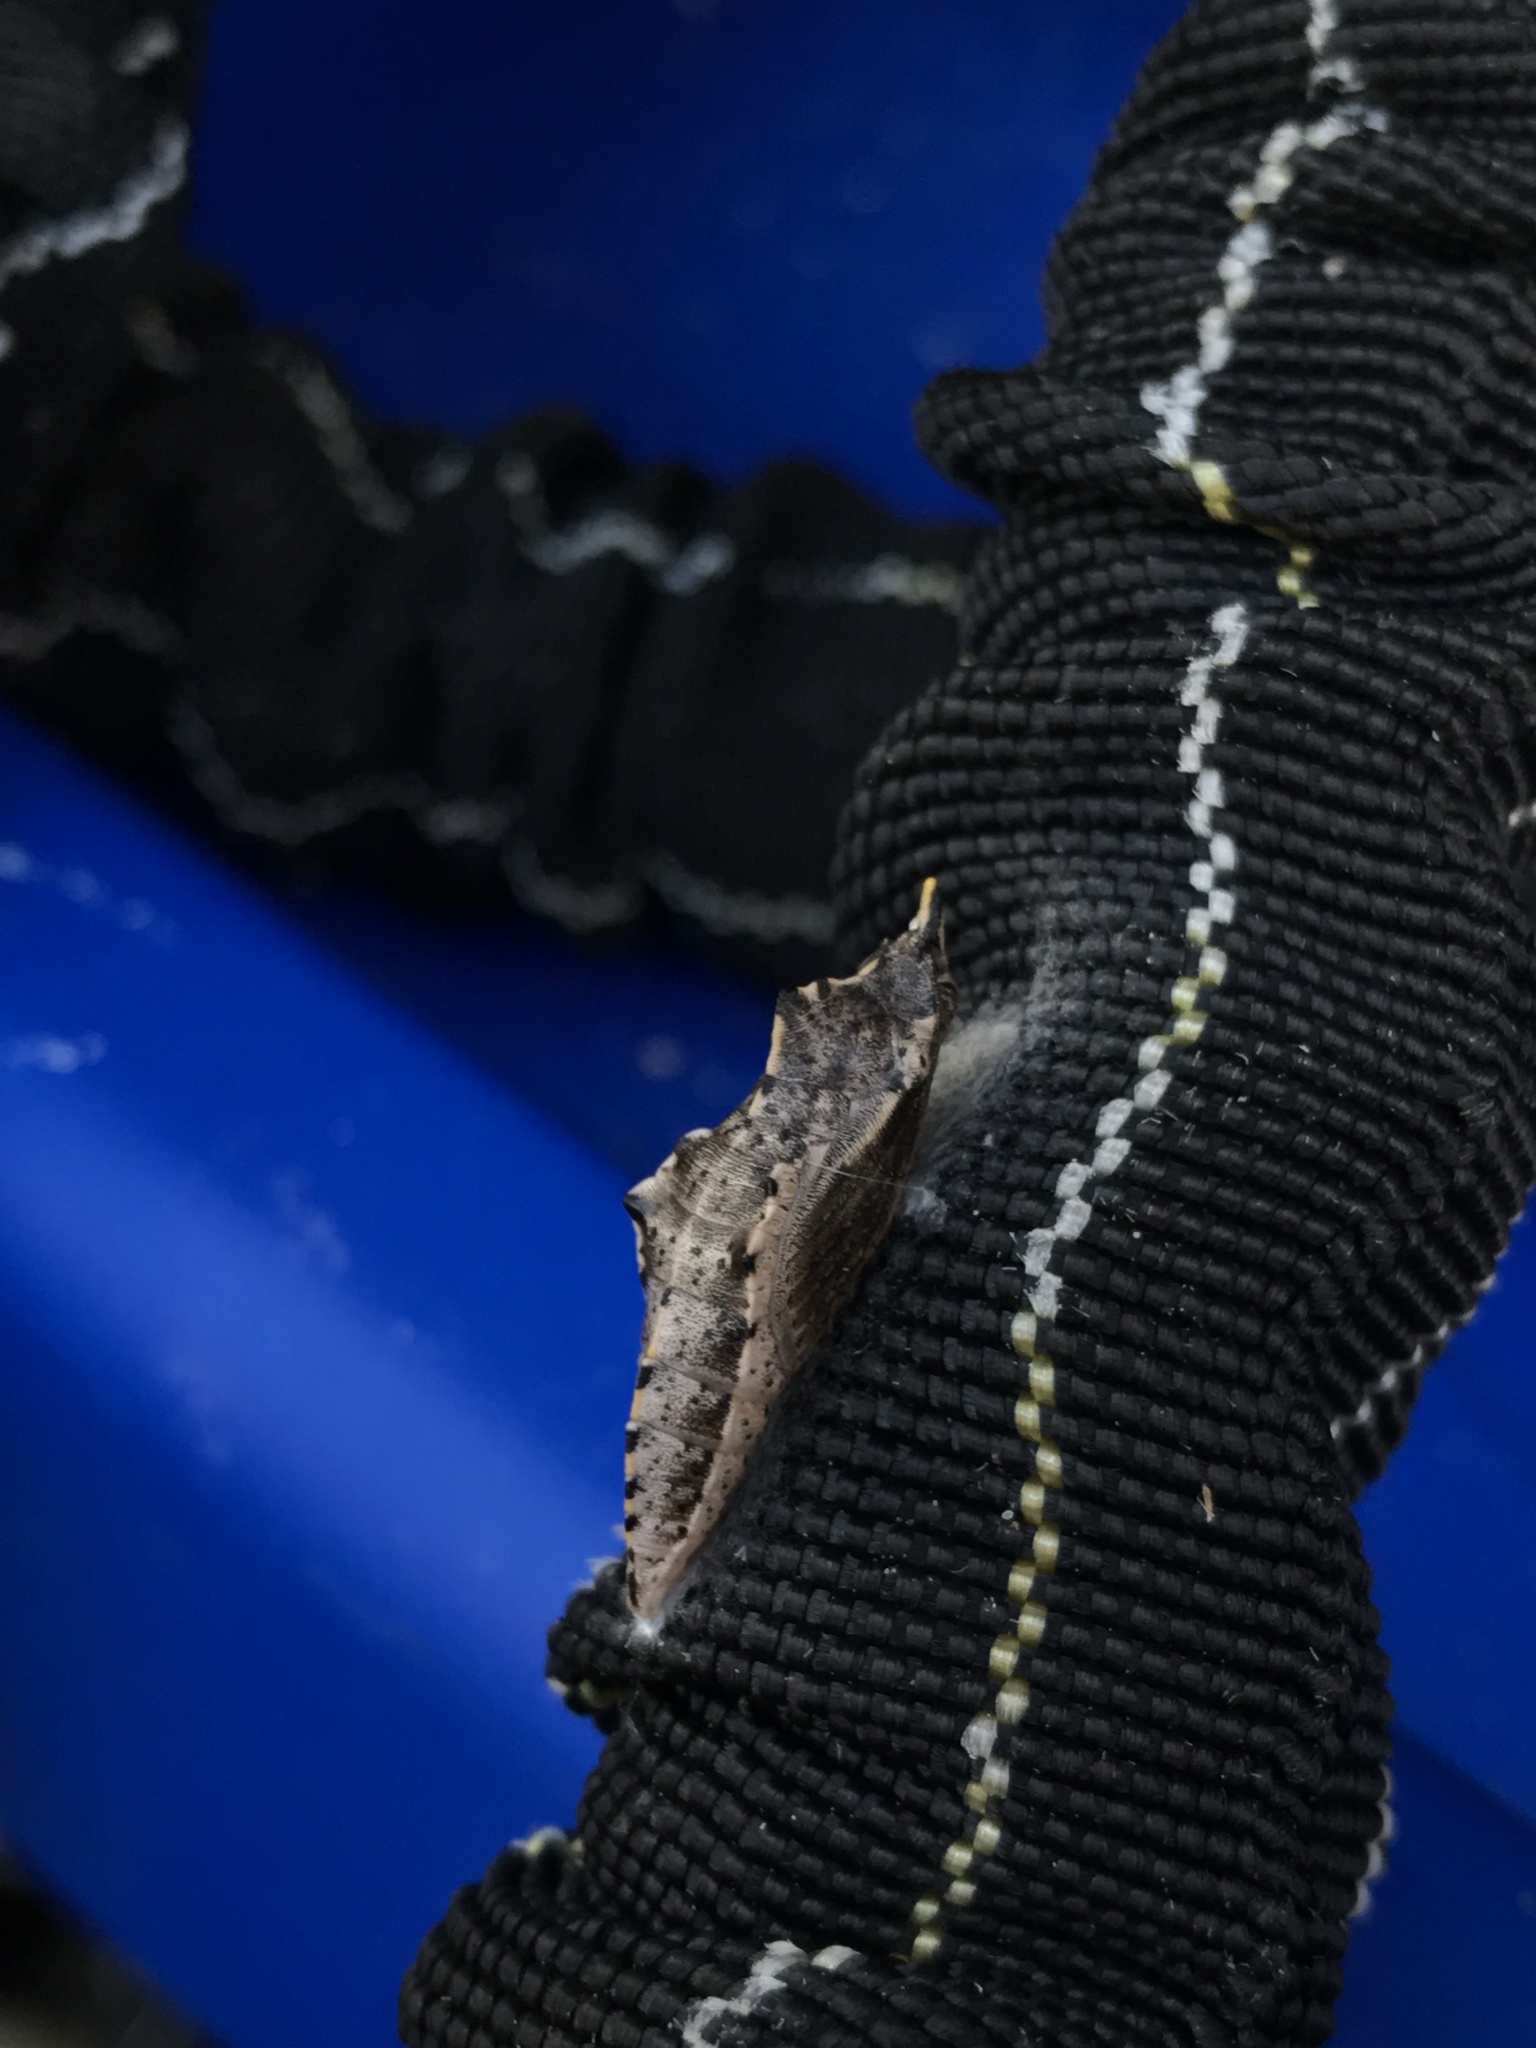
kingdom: Animalia
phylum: Arthropoda
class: Insecta
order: Lepidoptera
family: Pieridae
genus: Pieris
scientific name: Pieris rapae
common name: Small white
